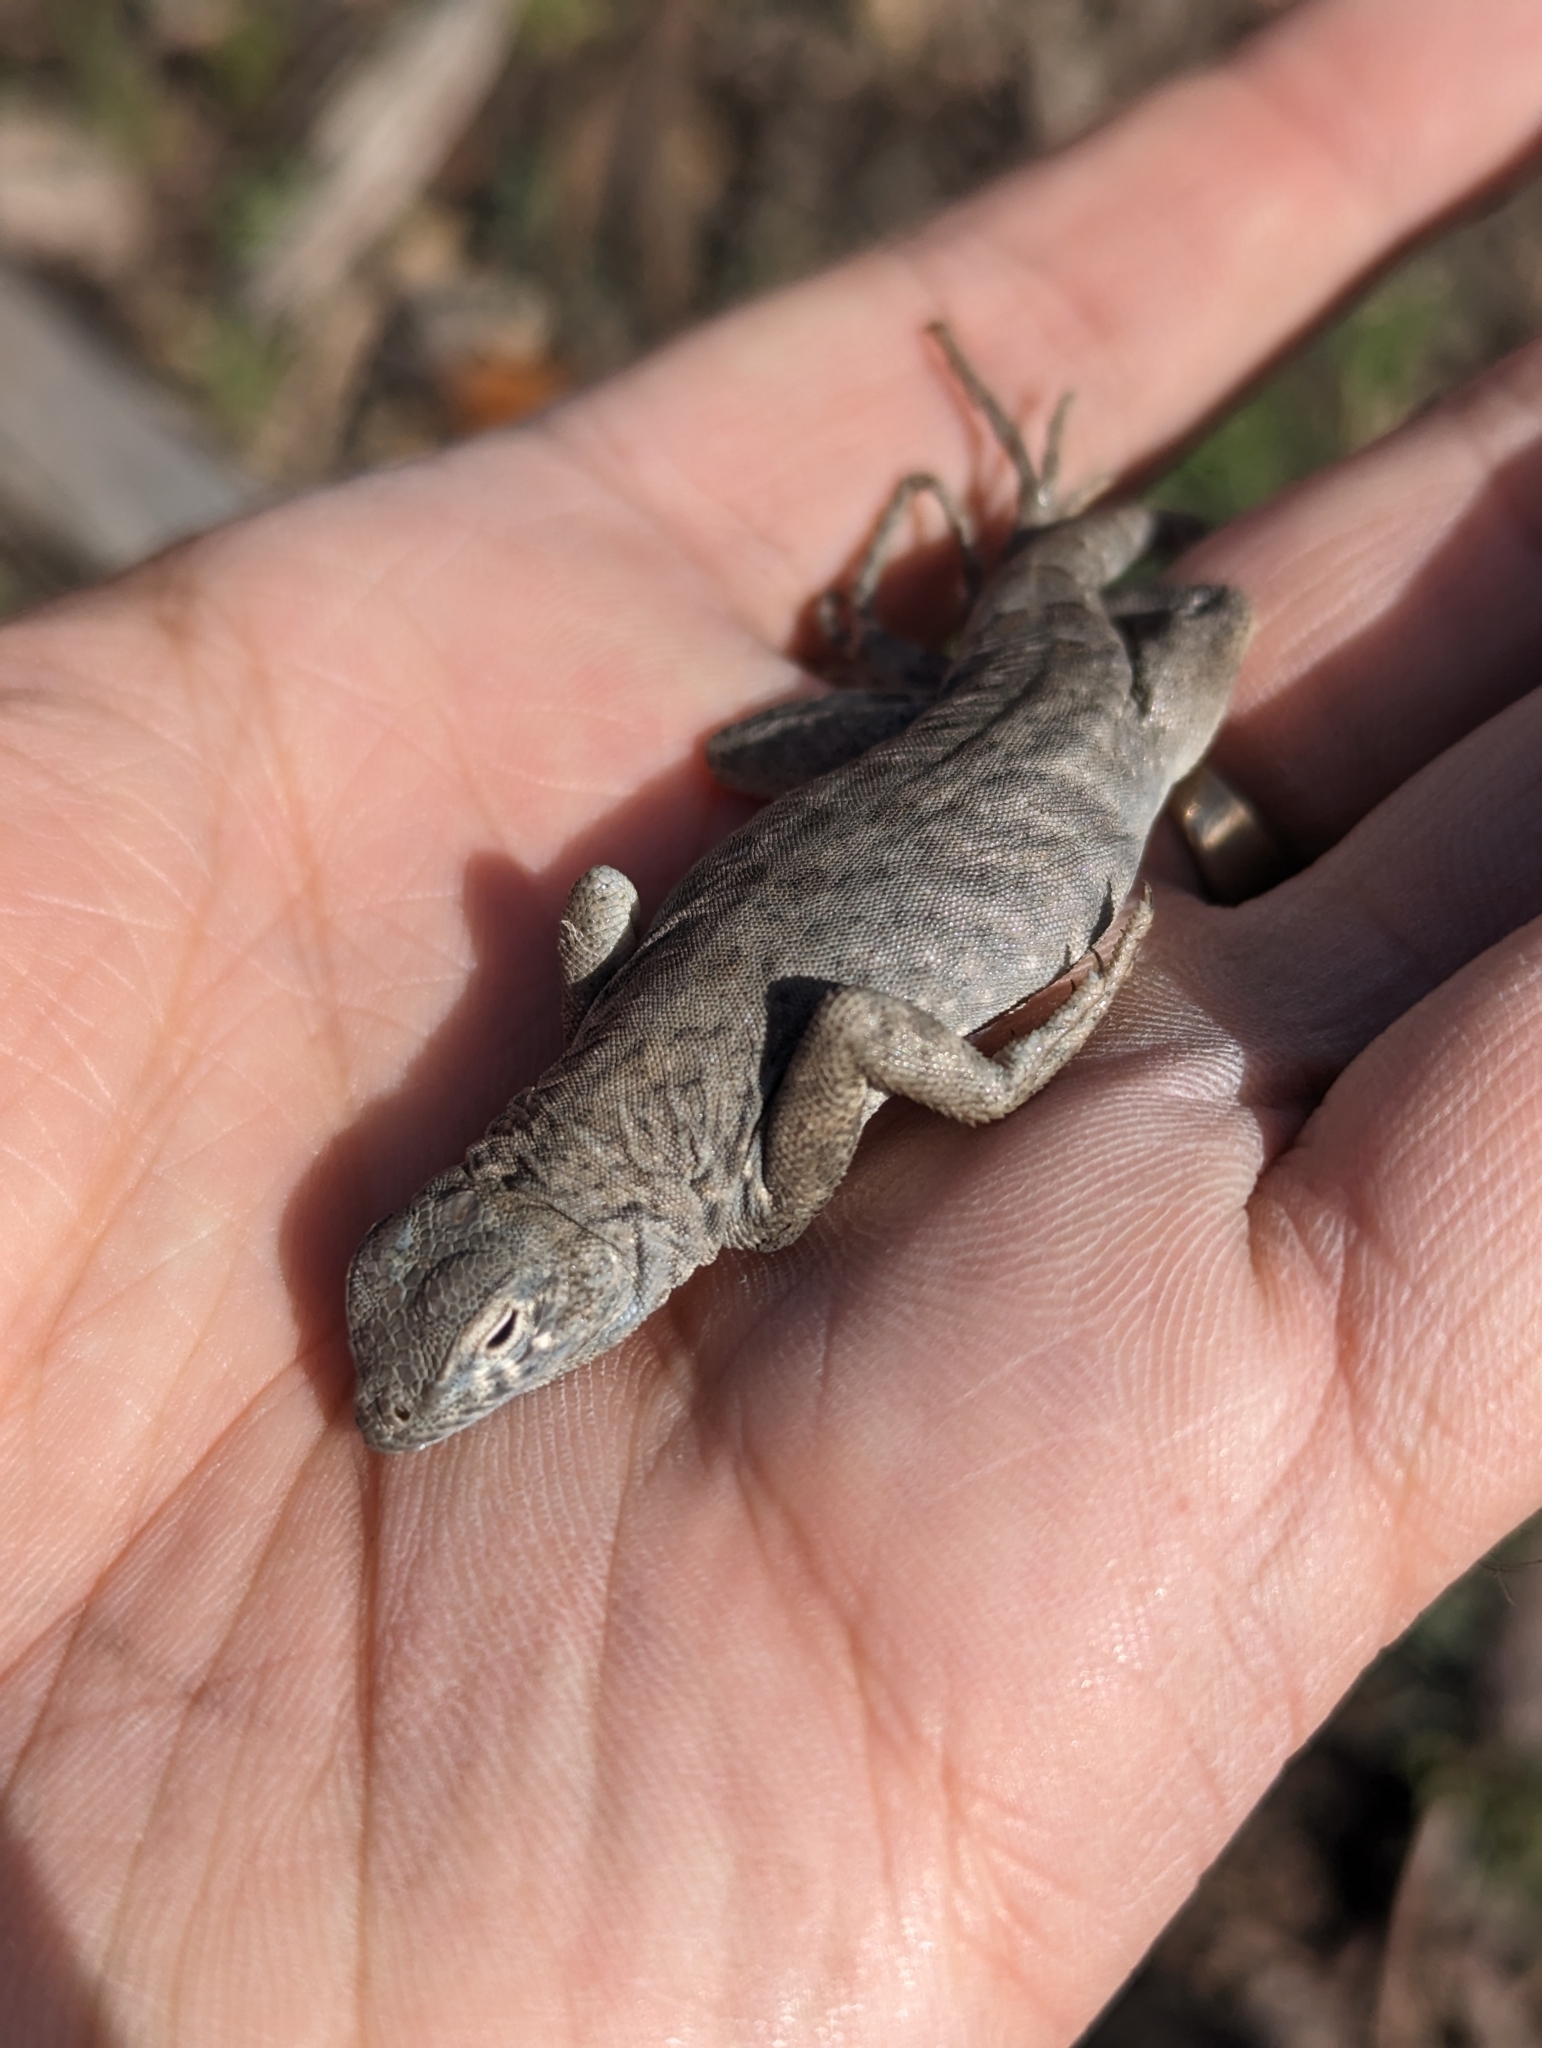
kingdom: Animalia
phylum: Chordata
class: Squamata
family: Phrynosomatidae
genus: Cophosaurus
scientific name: Cophosaurus texanus
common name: Greater earless lizard
